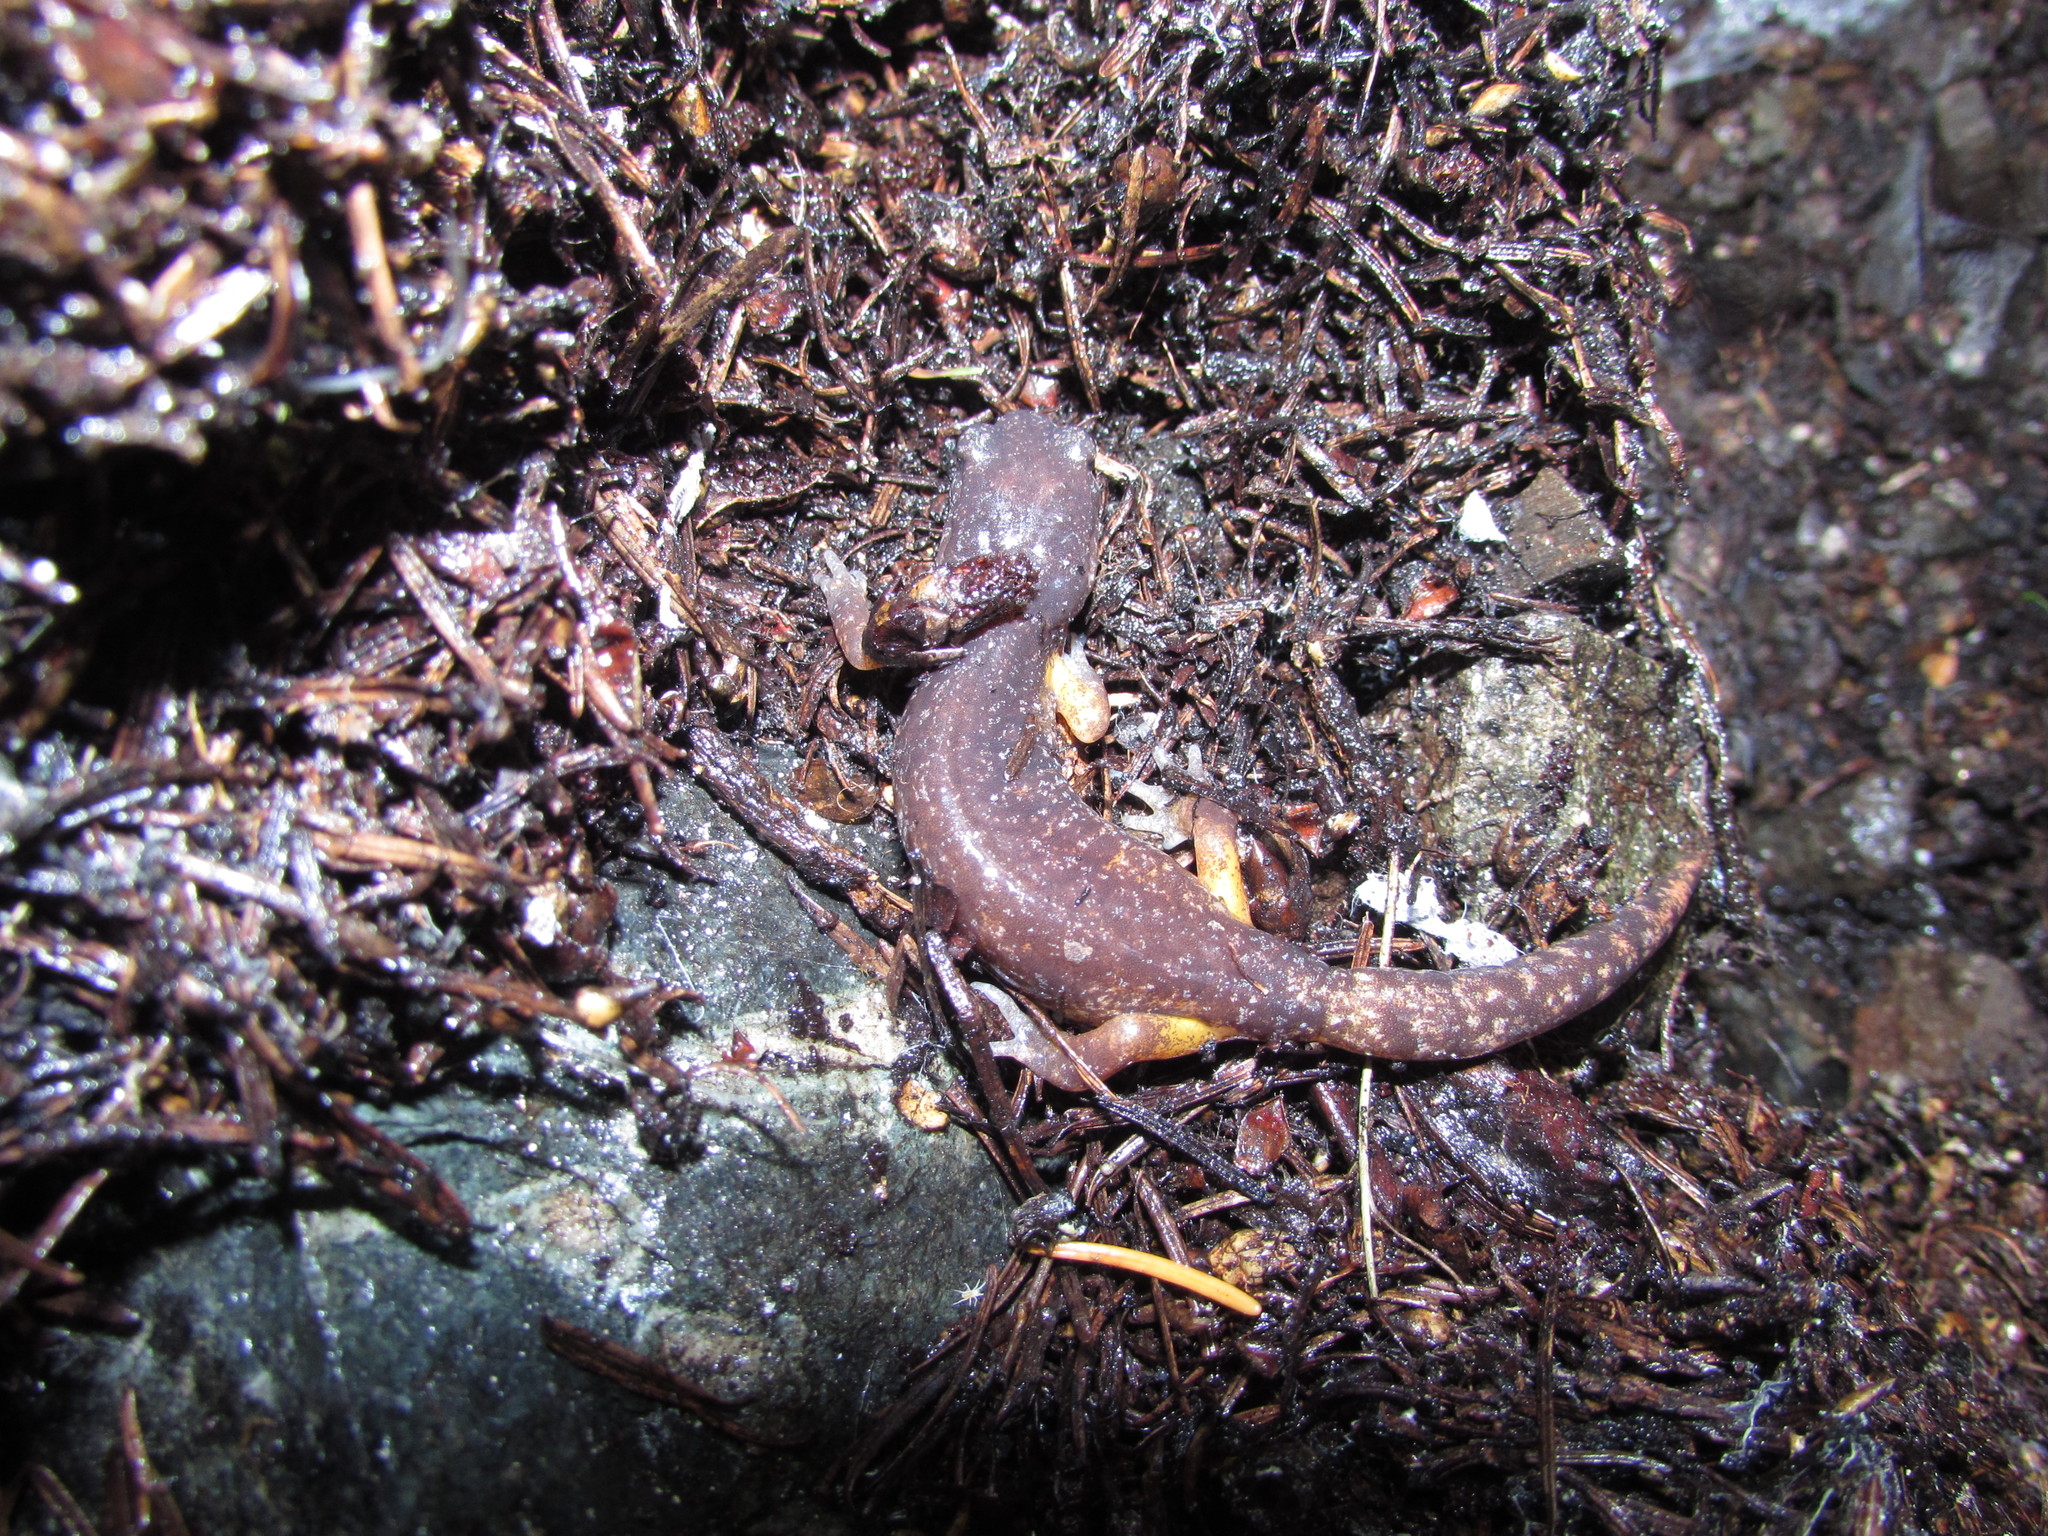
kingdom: Animalia
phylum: Chordata
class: Amphibia
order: Caudata
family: Plethodontidae
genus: Ensatina
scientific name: Ensatina eschscholtzii
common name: Ensatina
